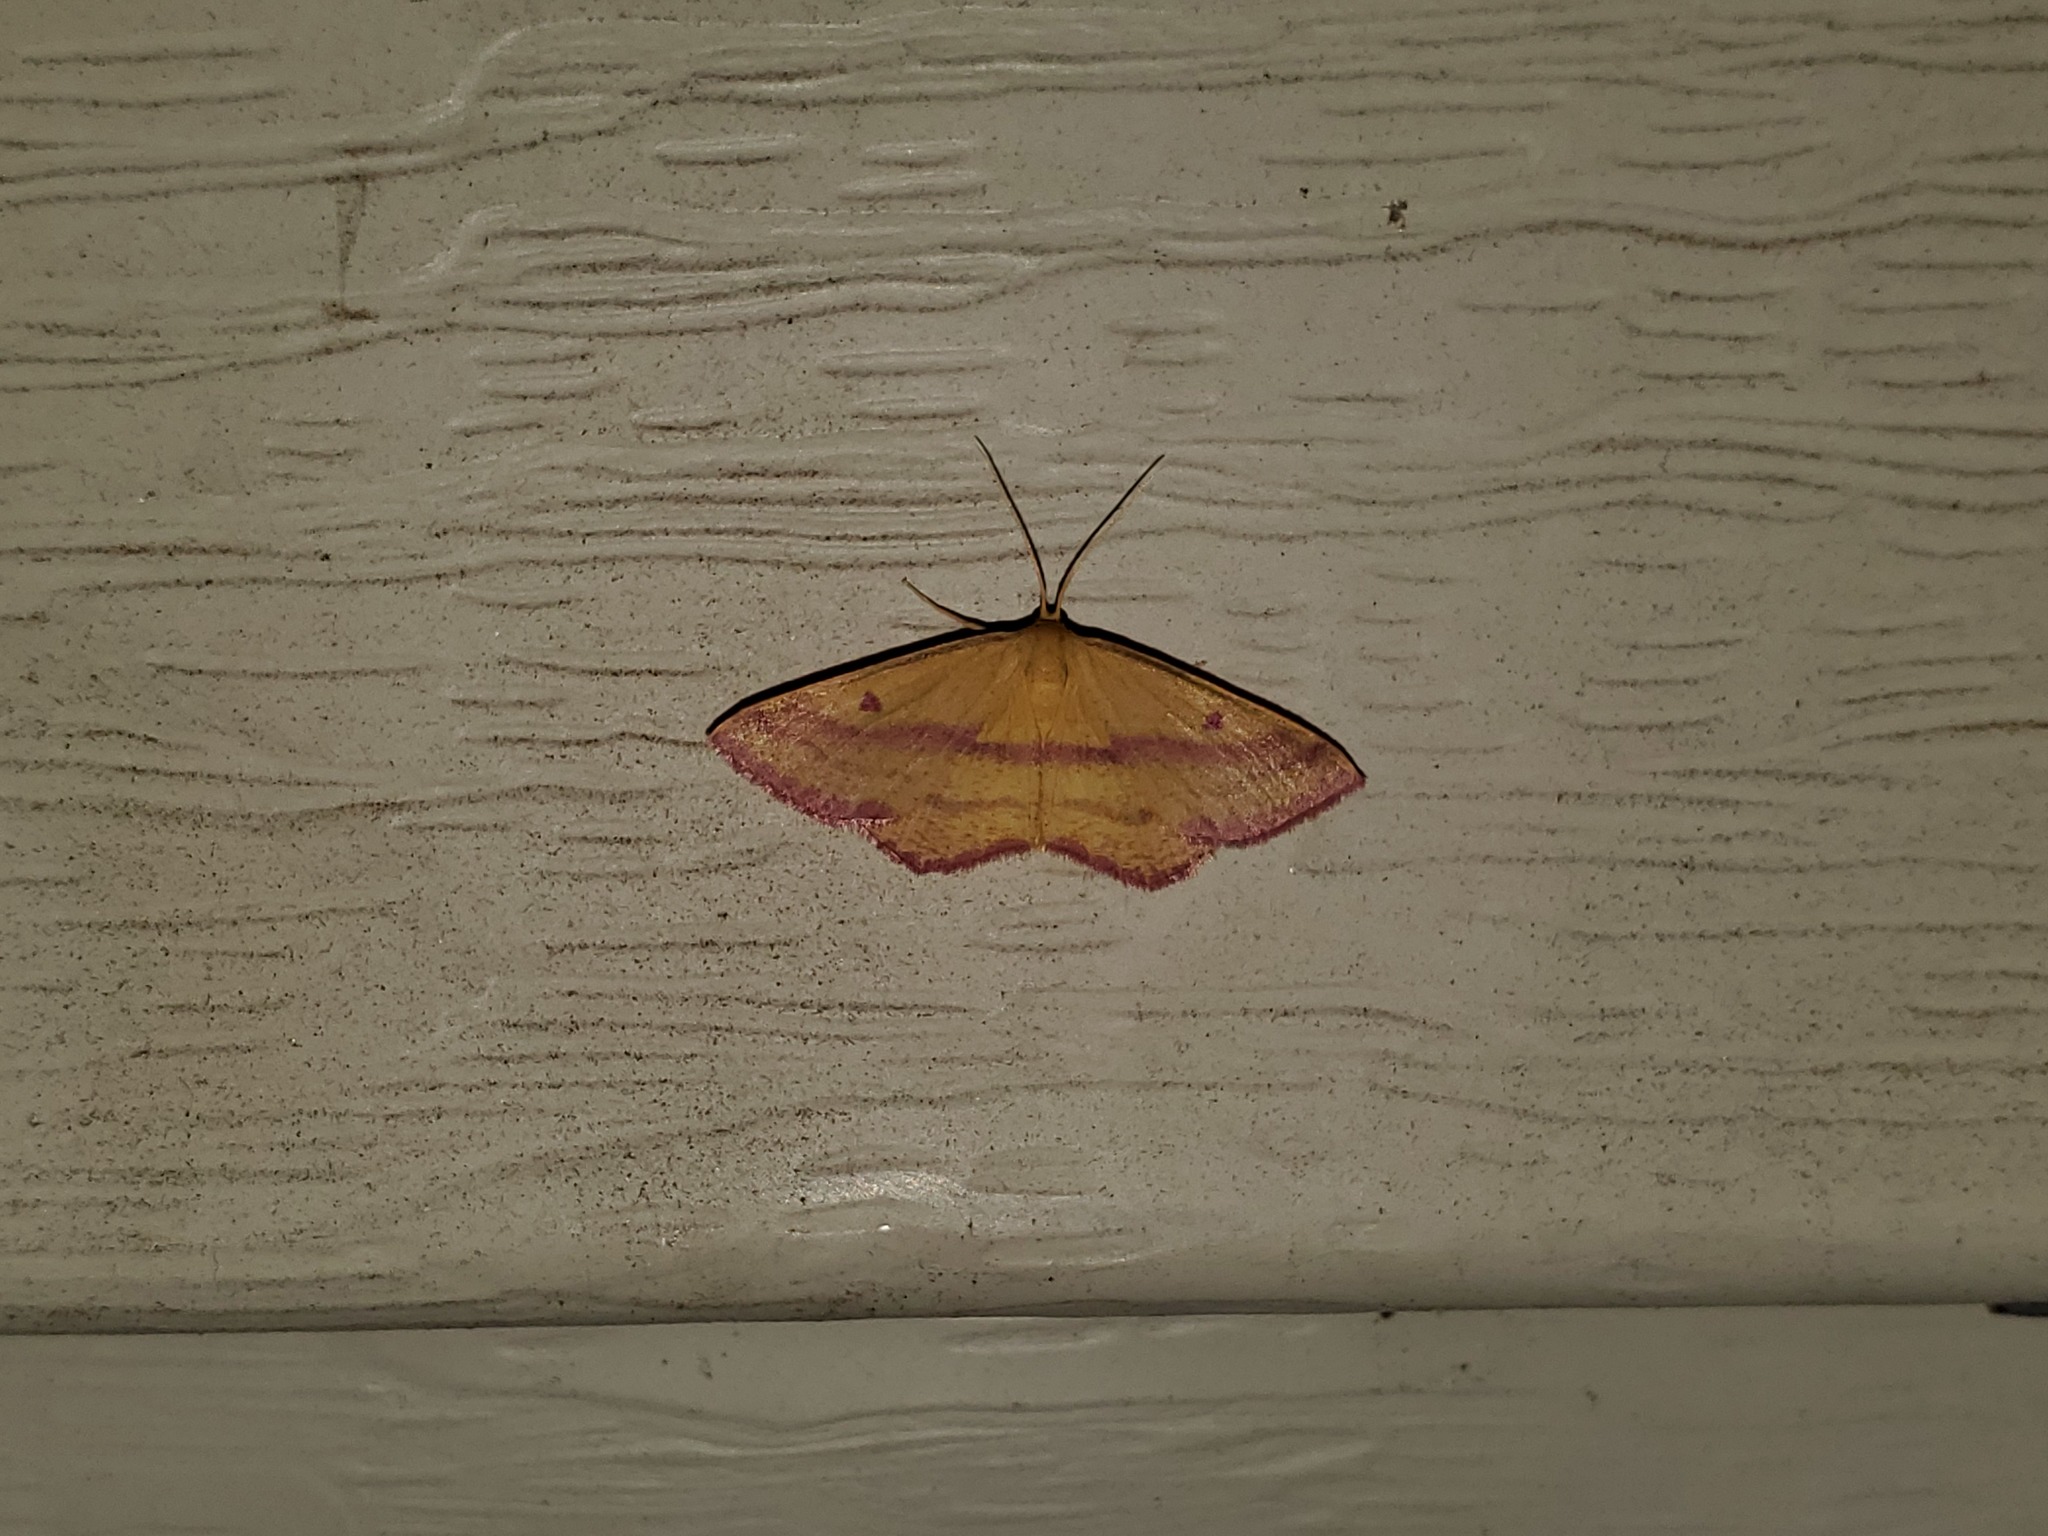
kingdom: Animalia
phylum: Arthropoda
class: Insecta
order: Lepidoptera
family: Geometridae
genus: Haematopis
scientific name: Haematopis grataria
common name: Chickweed geometer
